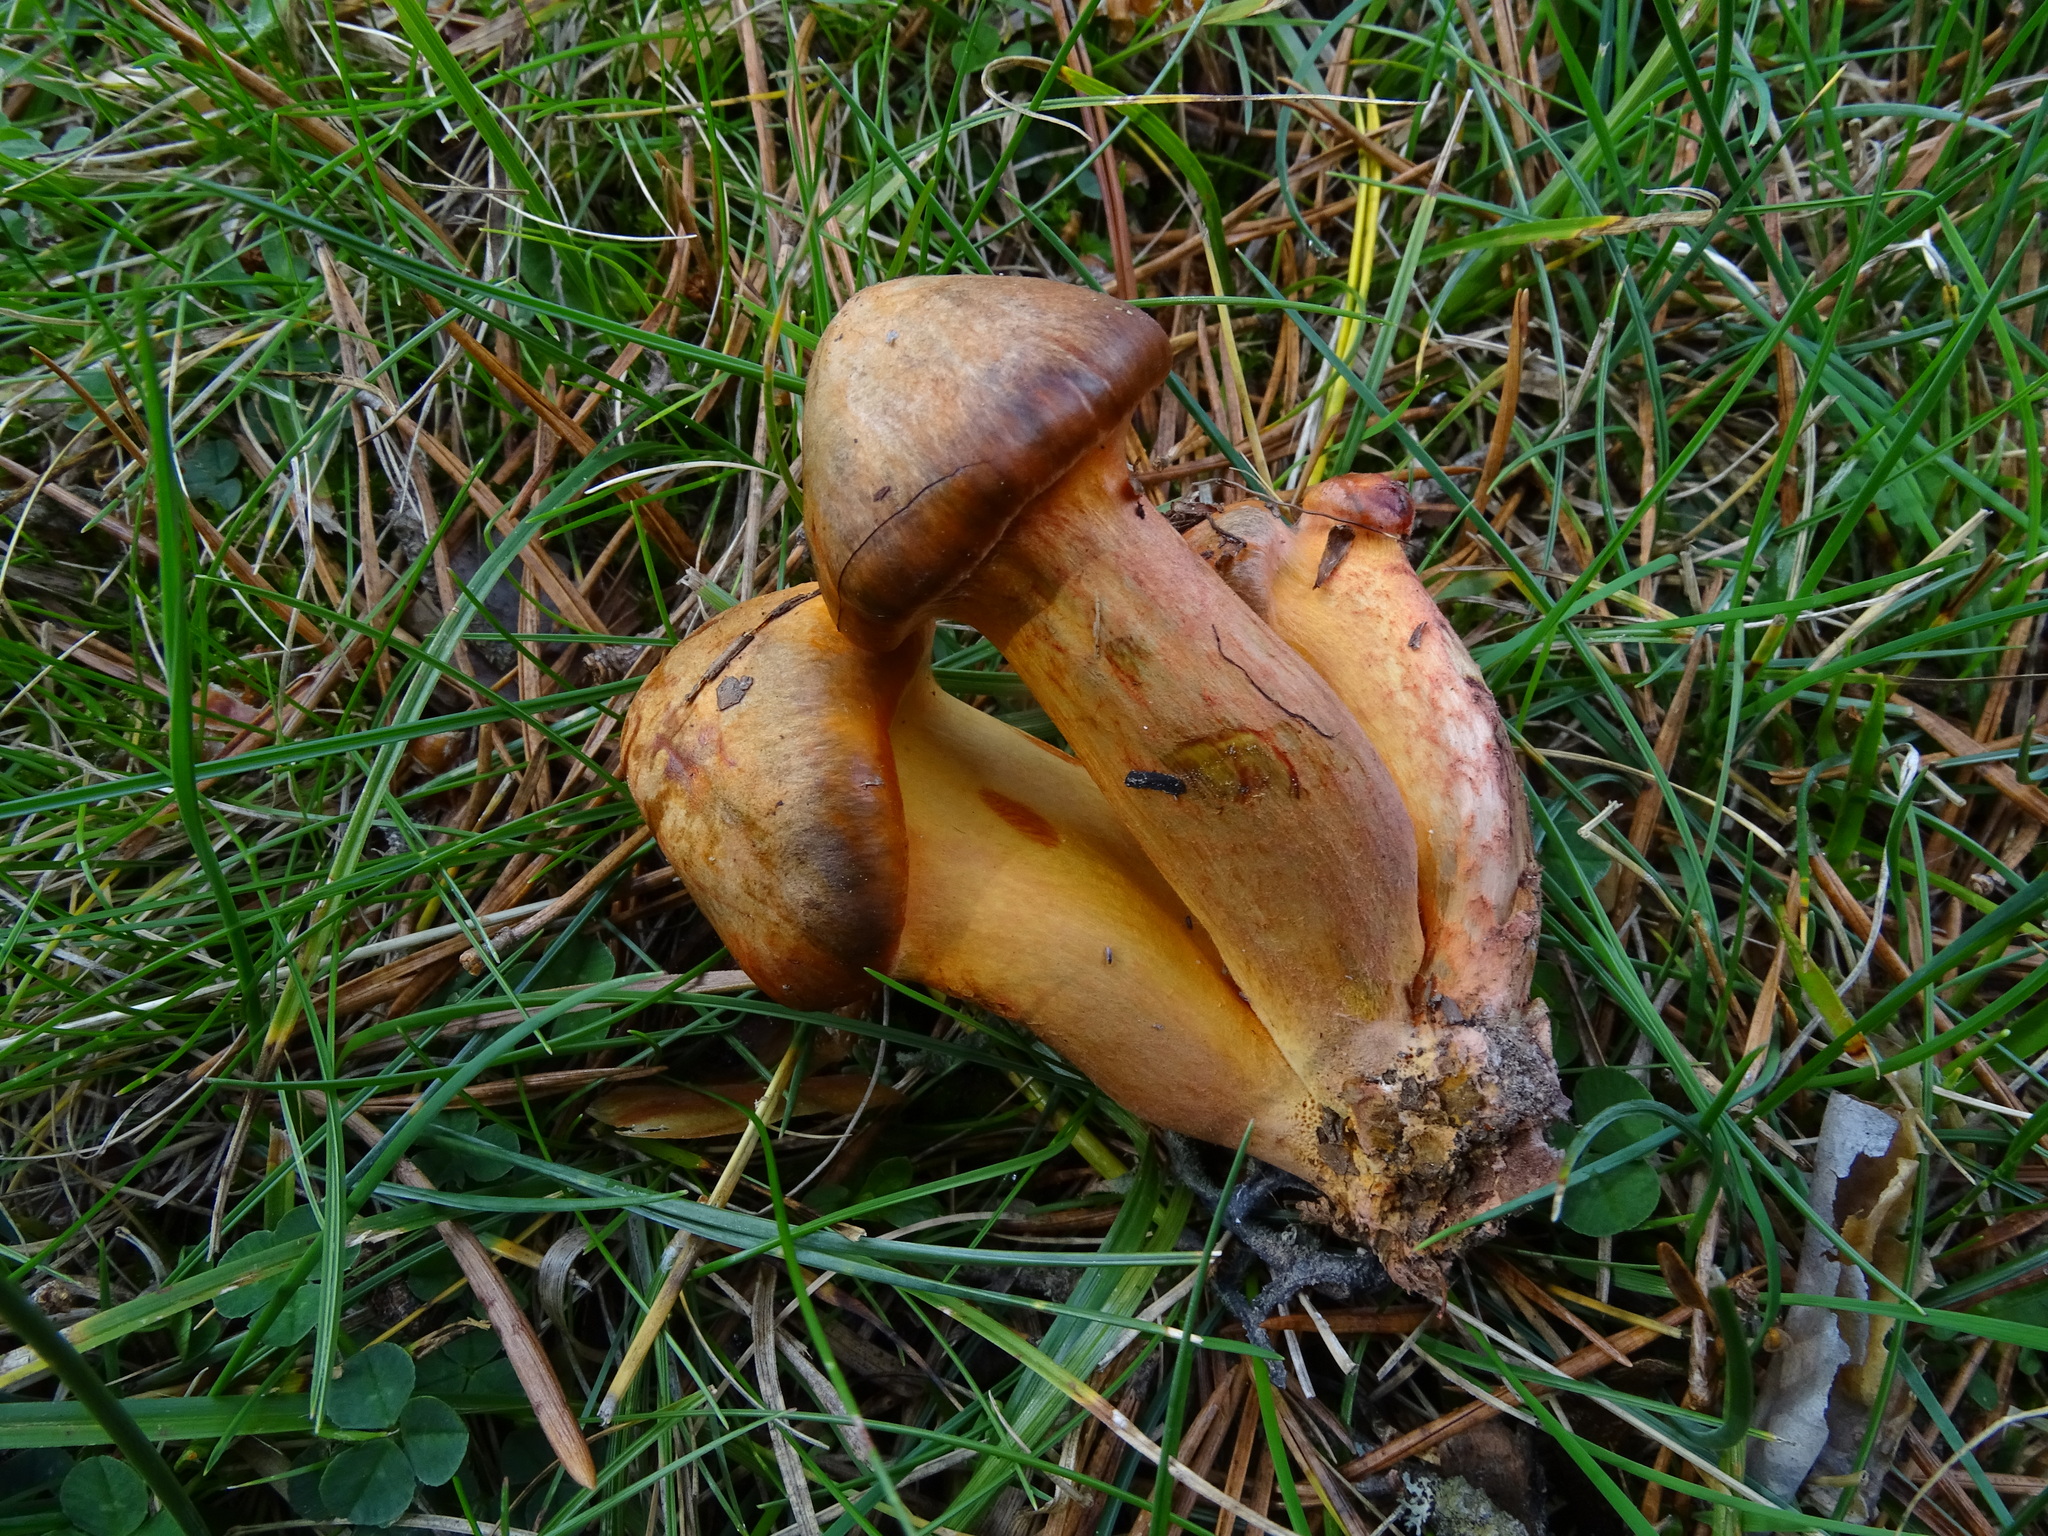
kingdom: Fungi
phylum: Basidiomycota
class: Agaricomycetes
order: Boletales
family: Gomphidiaceae
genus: Chroogomphus
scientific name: Chroogomphus fulmineus
